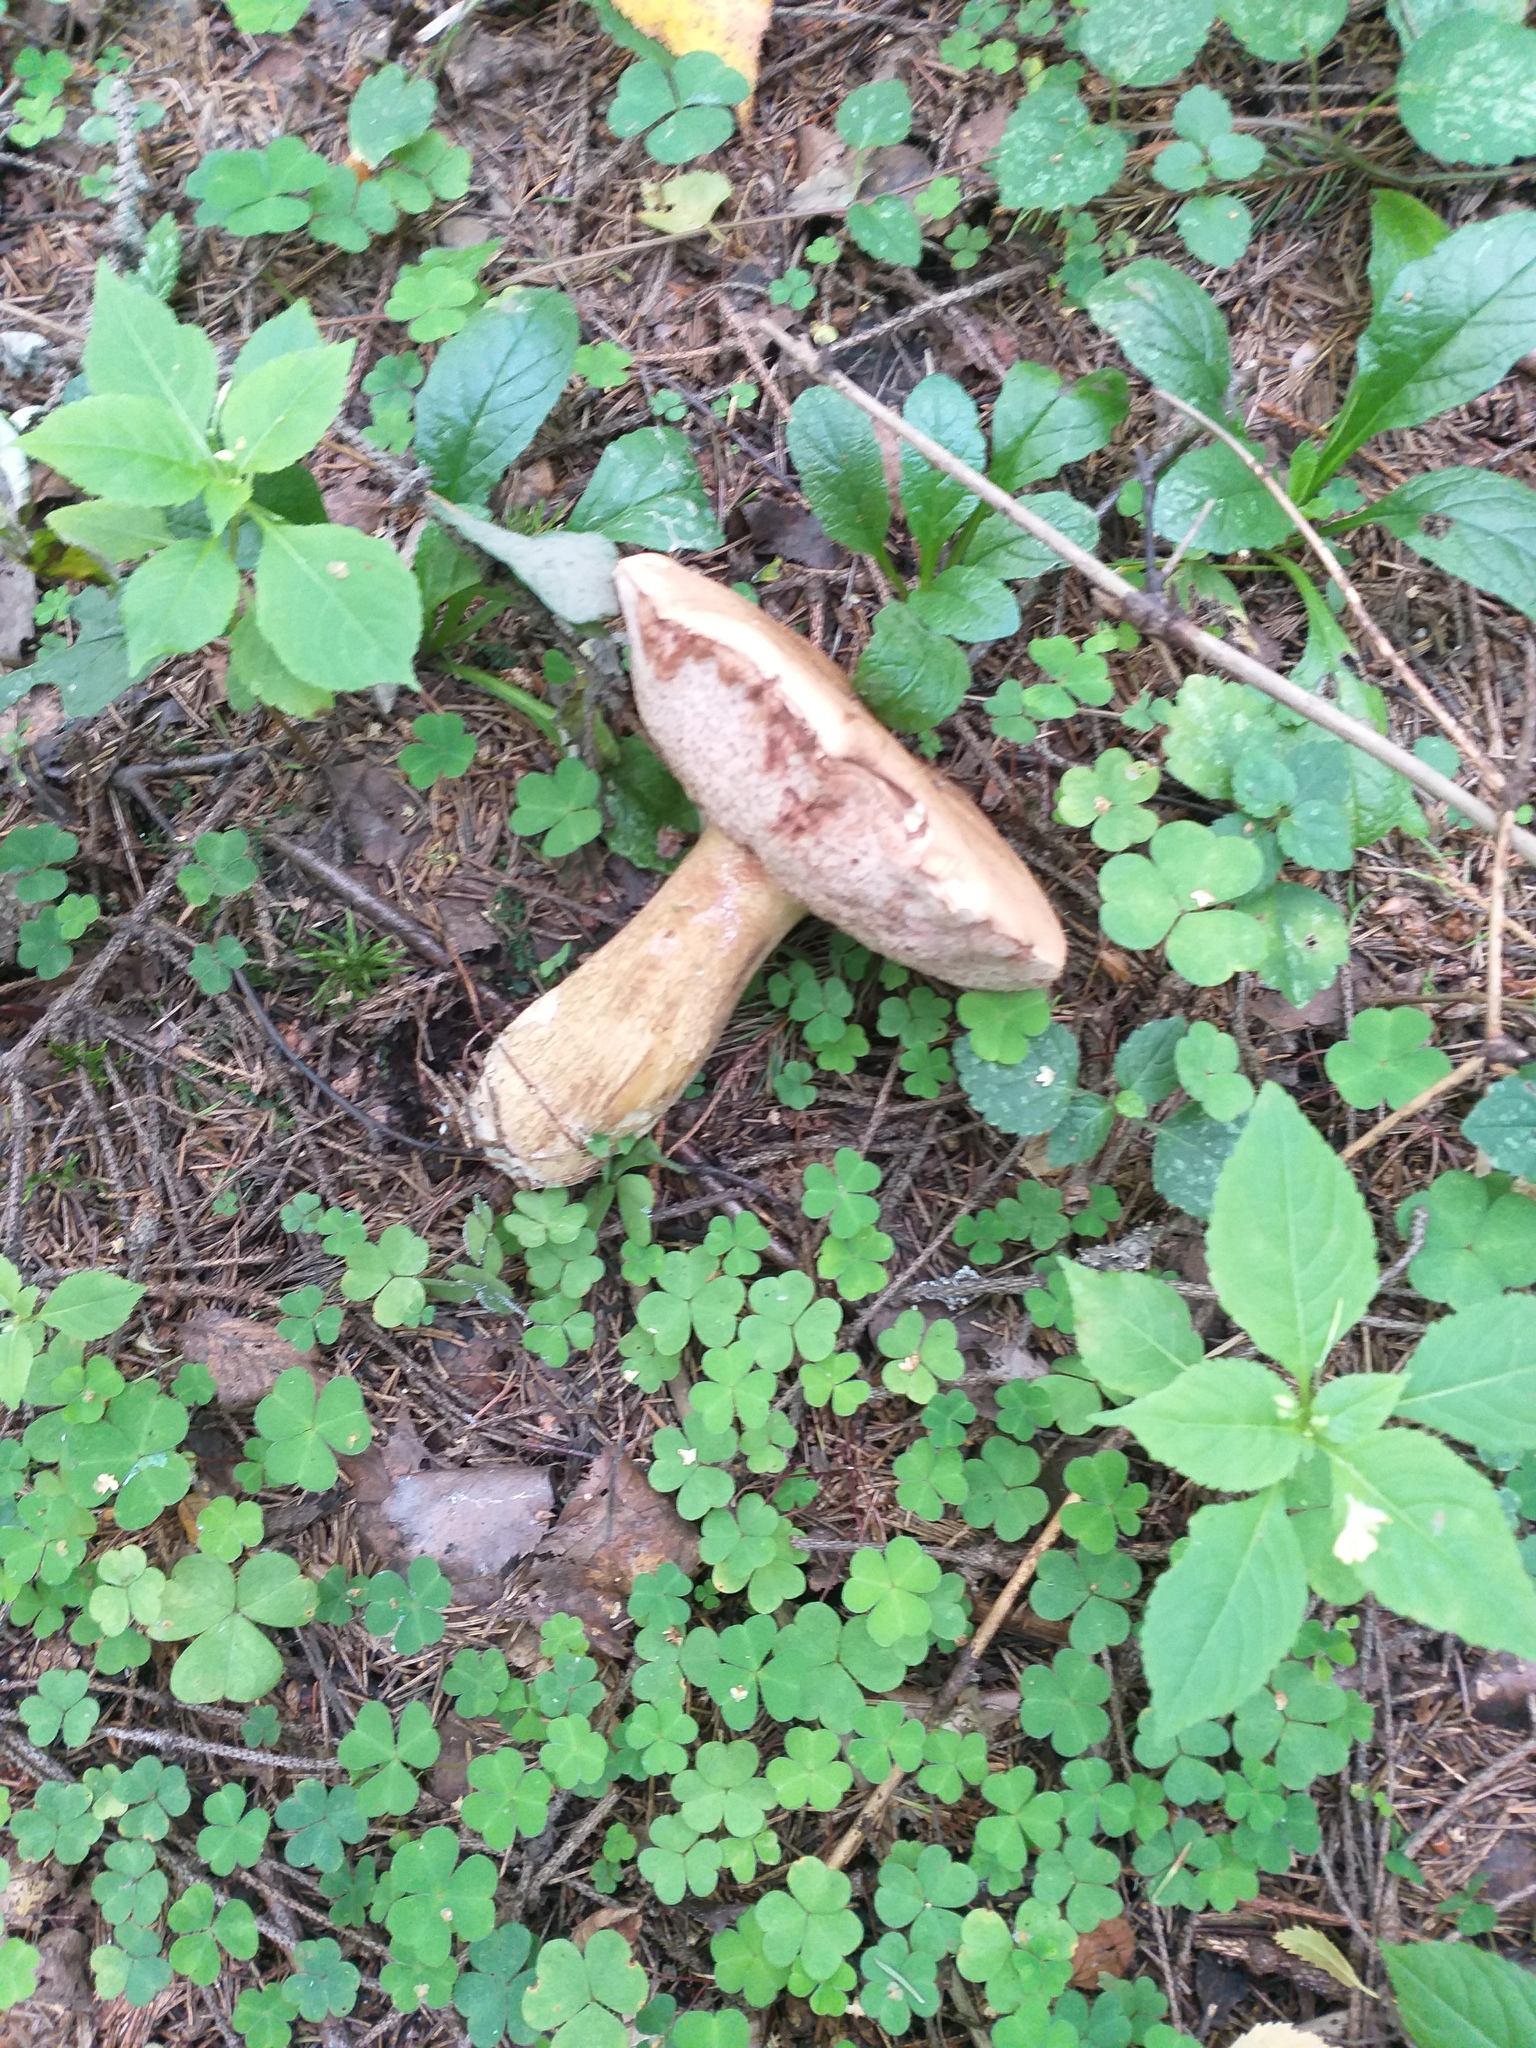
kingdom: Fungi
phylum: Basidiomycota
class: Agaricomycetes
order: Boletales
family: Boletaceae
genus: Tylopilus
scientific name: Tylopilus felleus
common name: Bitter bolete
